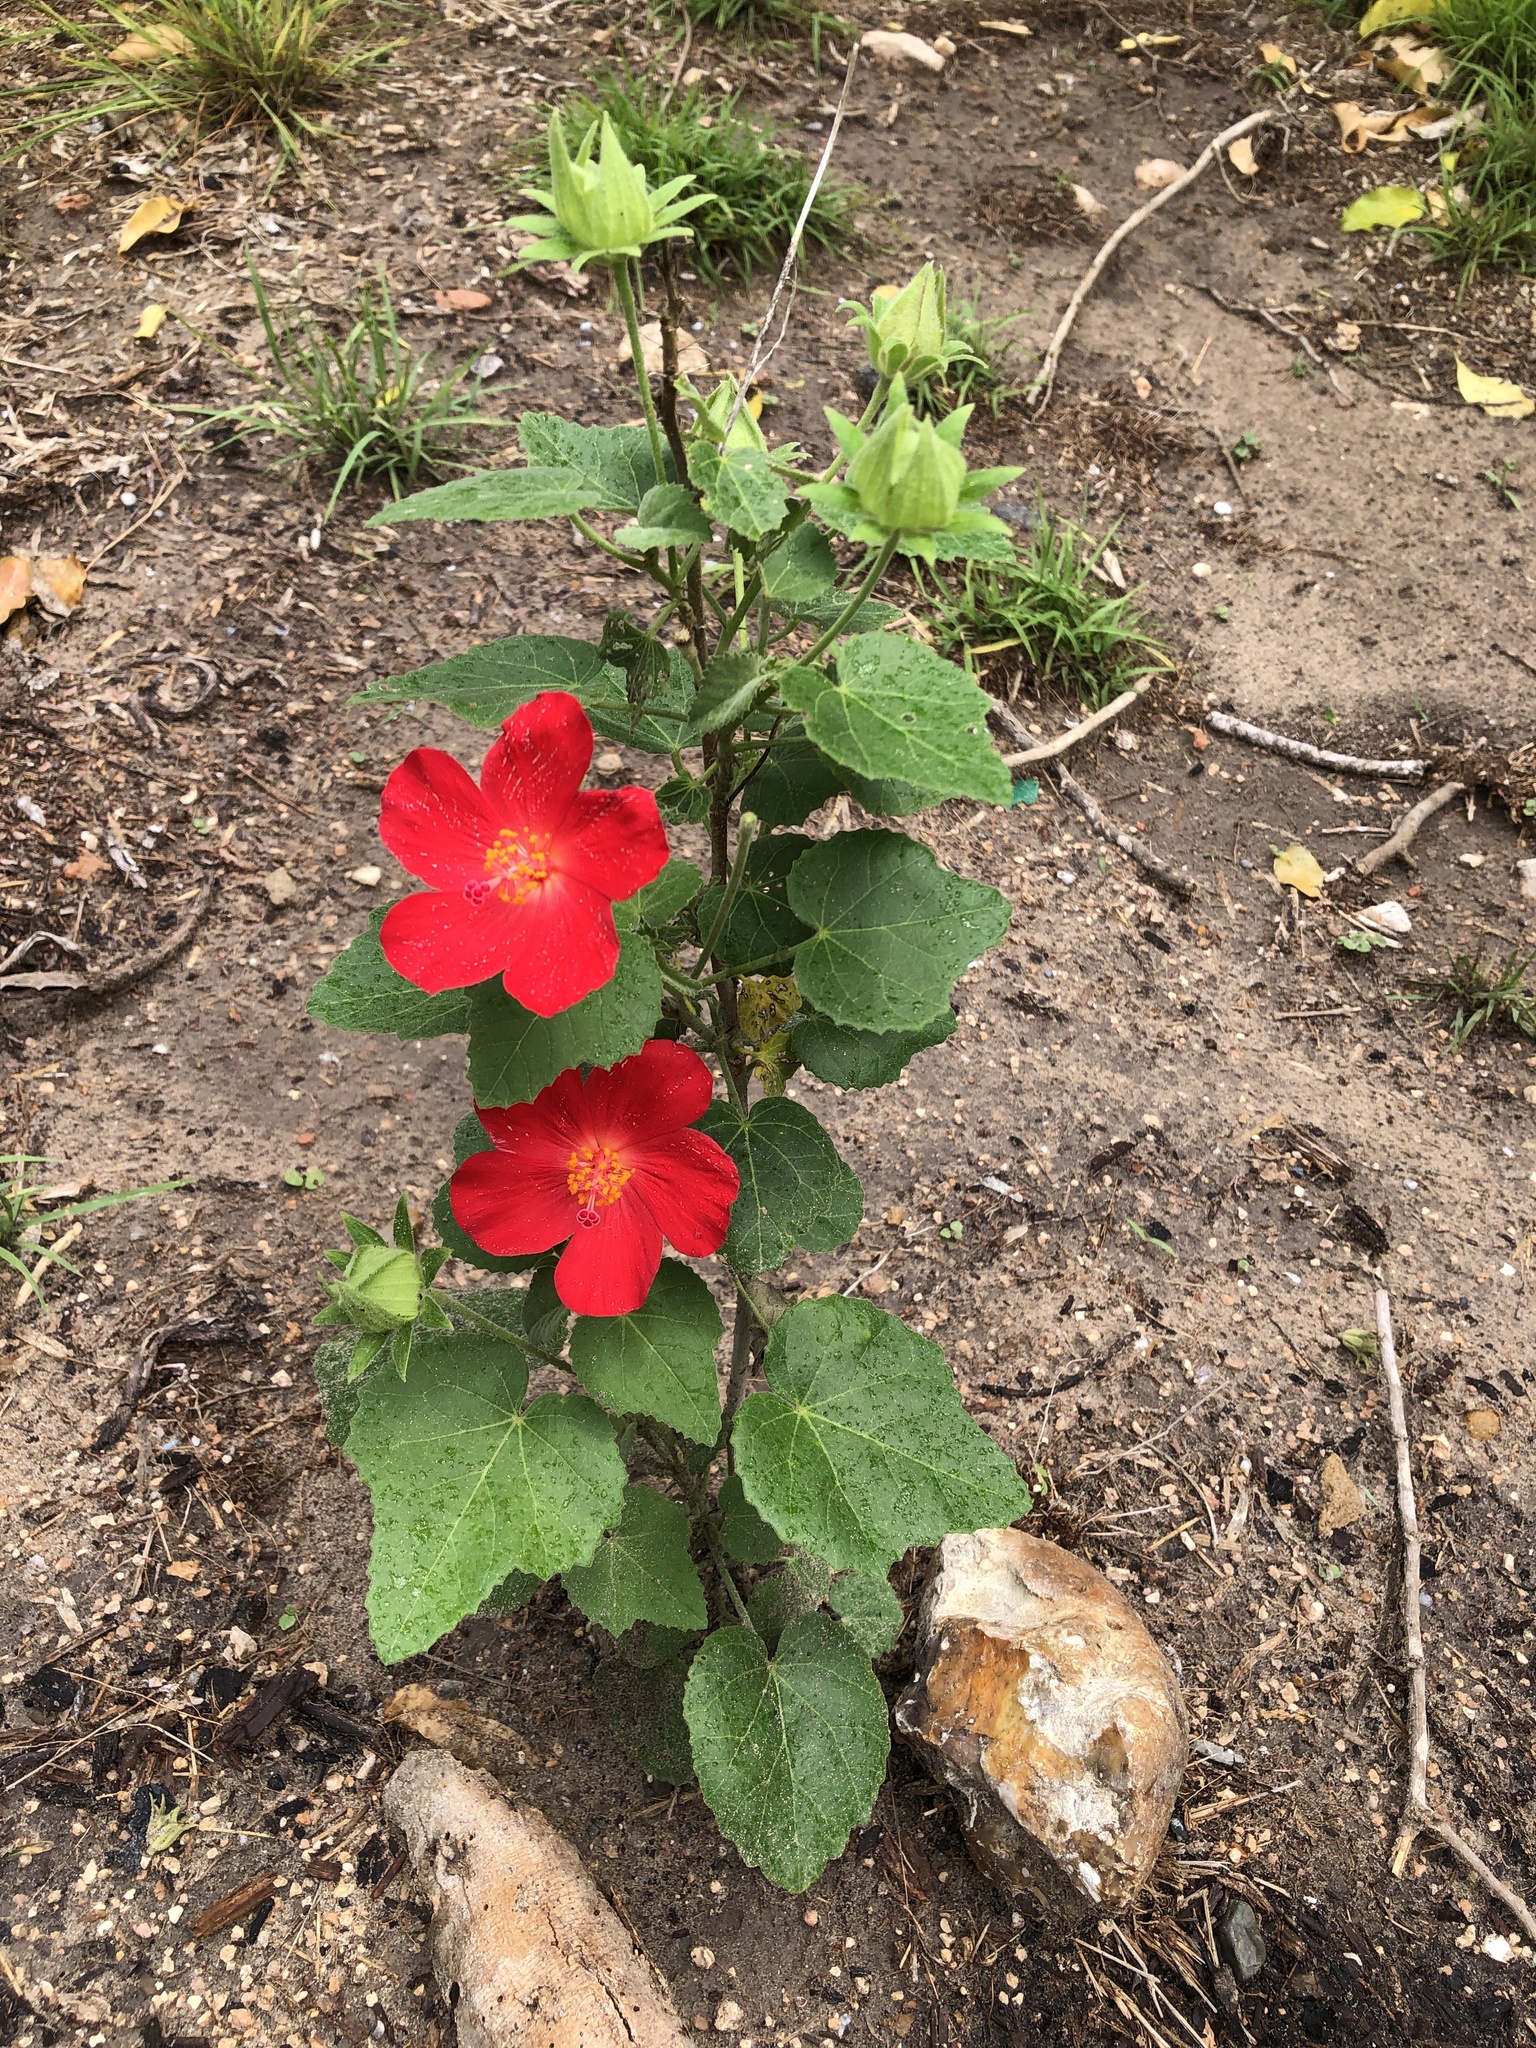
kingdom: Plantae
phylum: Tracheophyta
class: Magnoliopsida
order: Malvales
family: Malvaceae
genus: Hibiscus
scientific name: Hibiscus martianus
